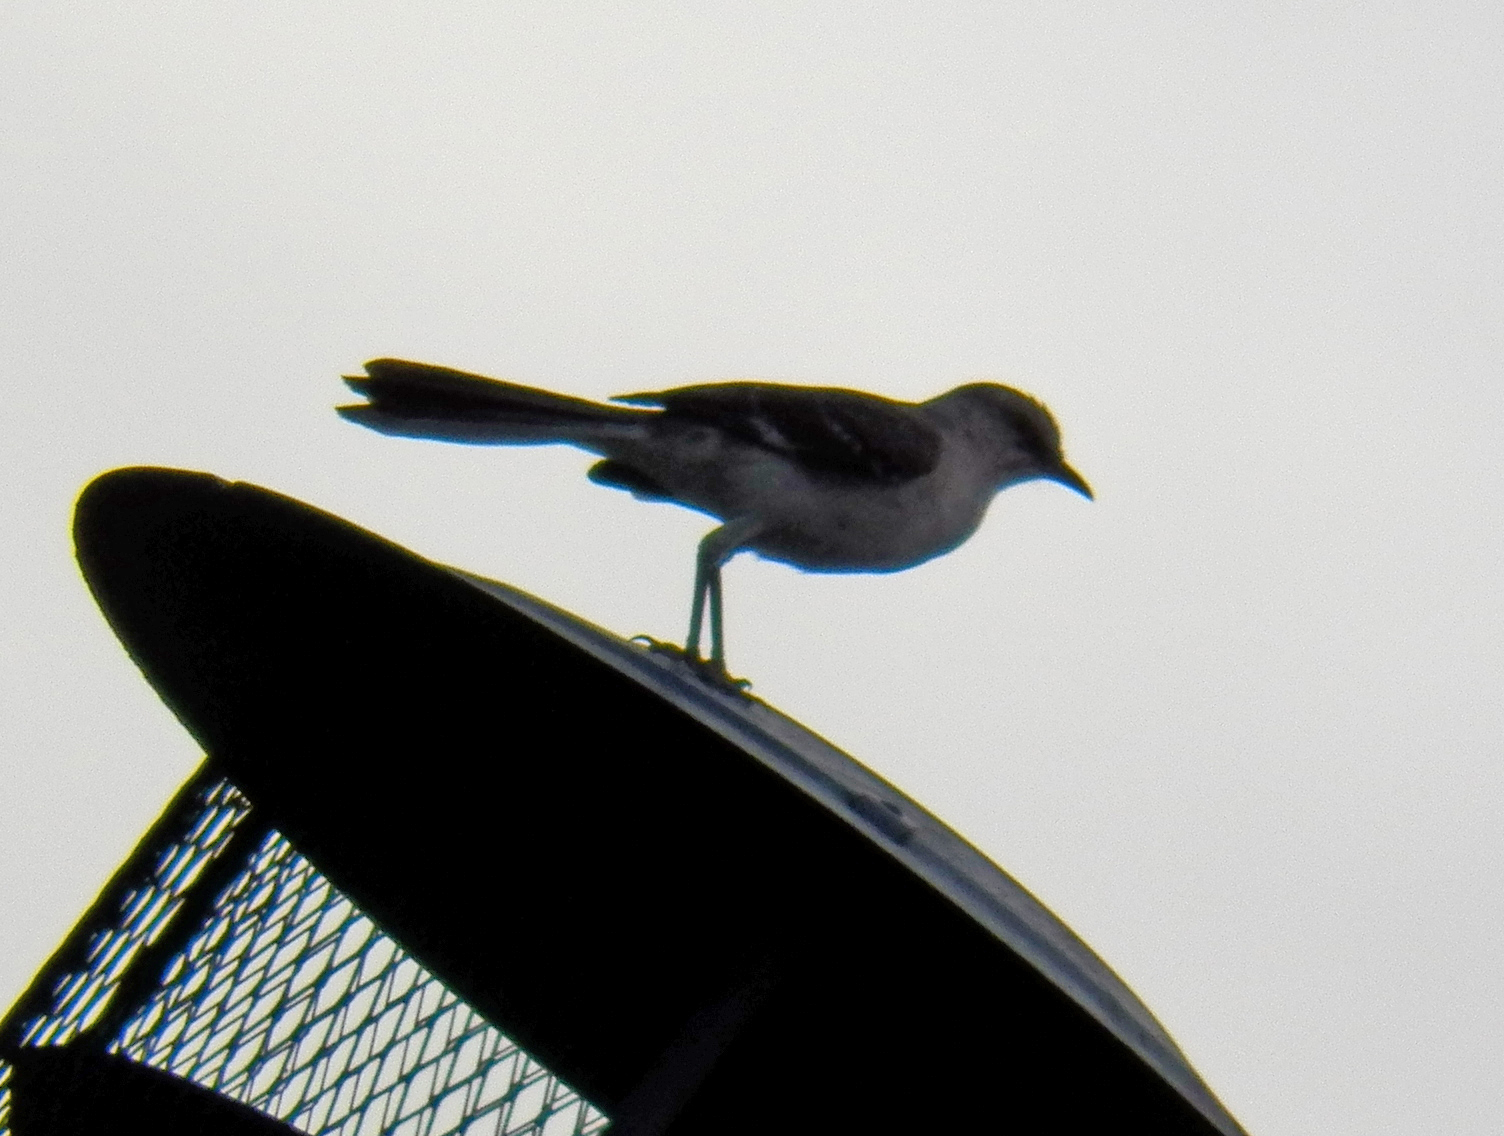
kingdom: Animalia
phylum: Chordata
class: Aves
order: Passeriformes
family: Mimidae
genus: Mimus
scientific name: Mimus polyglottos
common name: Northern mockingbird
